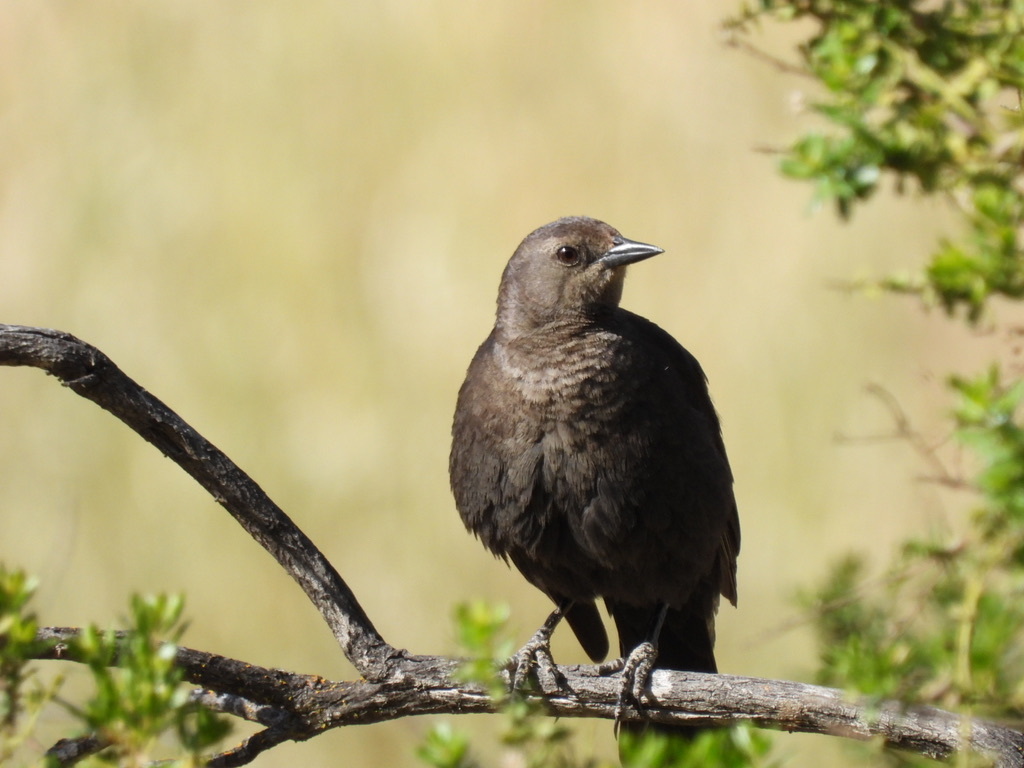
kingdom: Animalia
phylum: Chordata
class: Aves
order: Passeriformes
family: Icteridae
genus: Euphagus
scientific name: Euphagus cyanocephalus
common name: Brewer's blackbird
